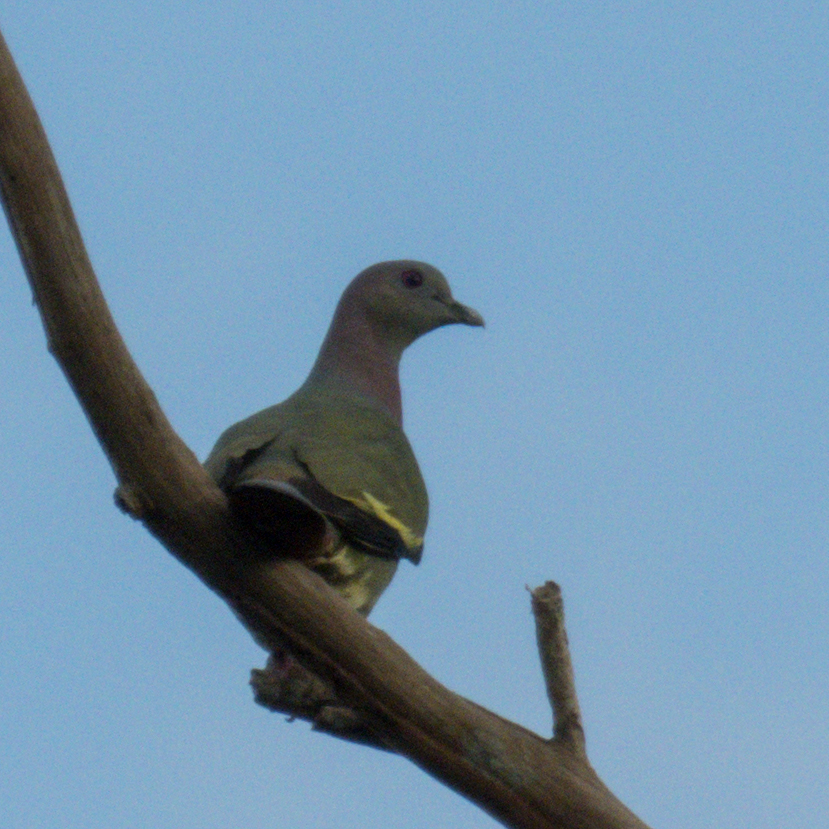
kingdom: Animalia
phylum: Chordata
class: Aves
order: Columbiformes
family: Columbidae
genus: Treron
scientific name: Treron vernans
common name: Pink-necked green pigeon
